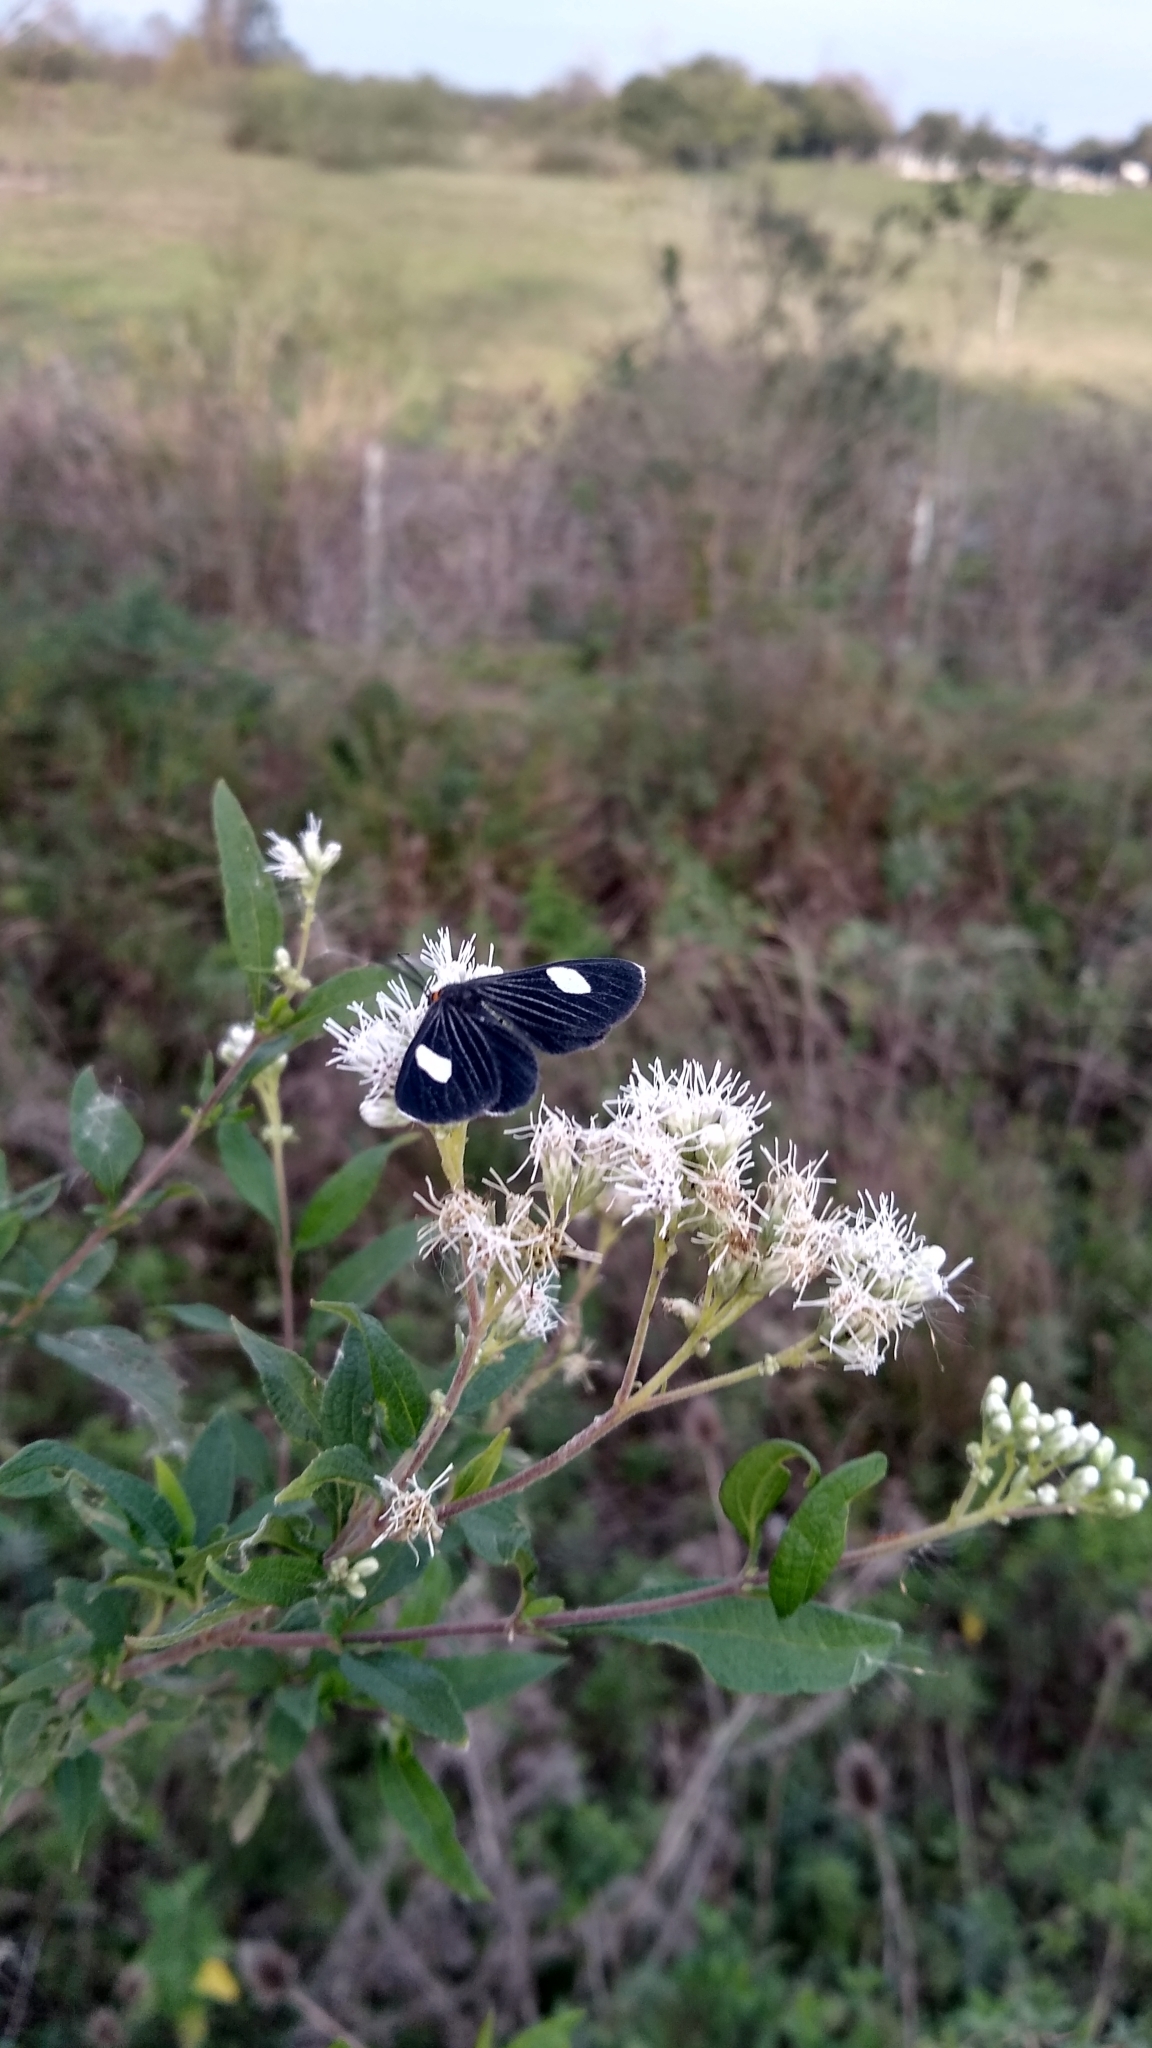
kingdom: Animalia
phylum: Arthropoda
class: Insecta
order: Lepidoptera
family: Geometridae
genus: Melanchroia
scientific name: Melanchroia aterea
